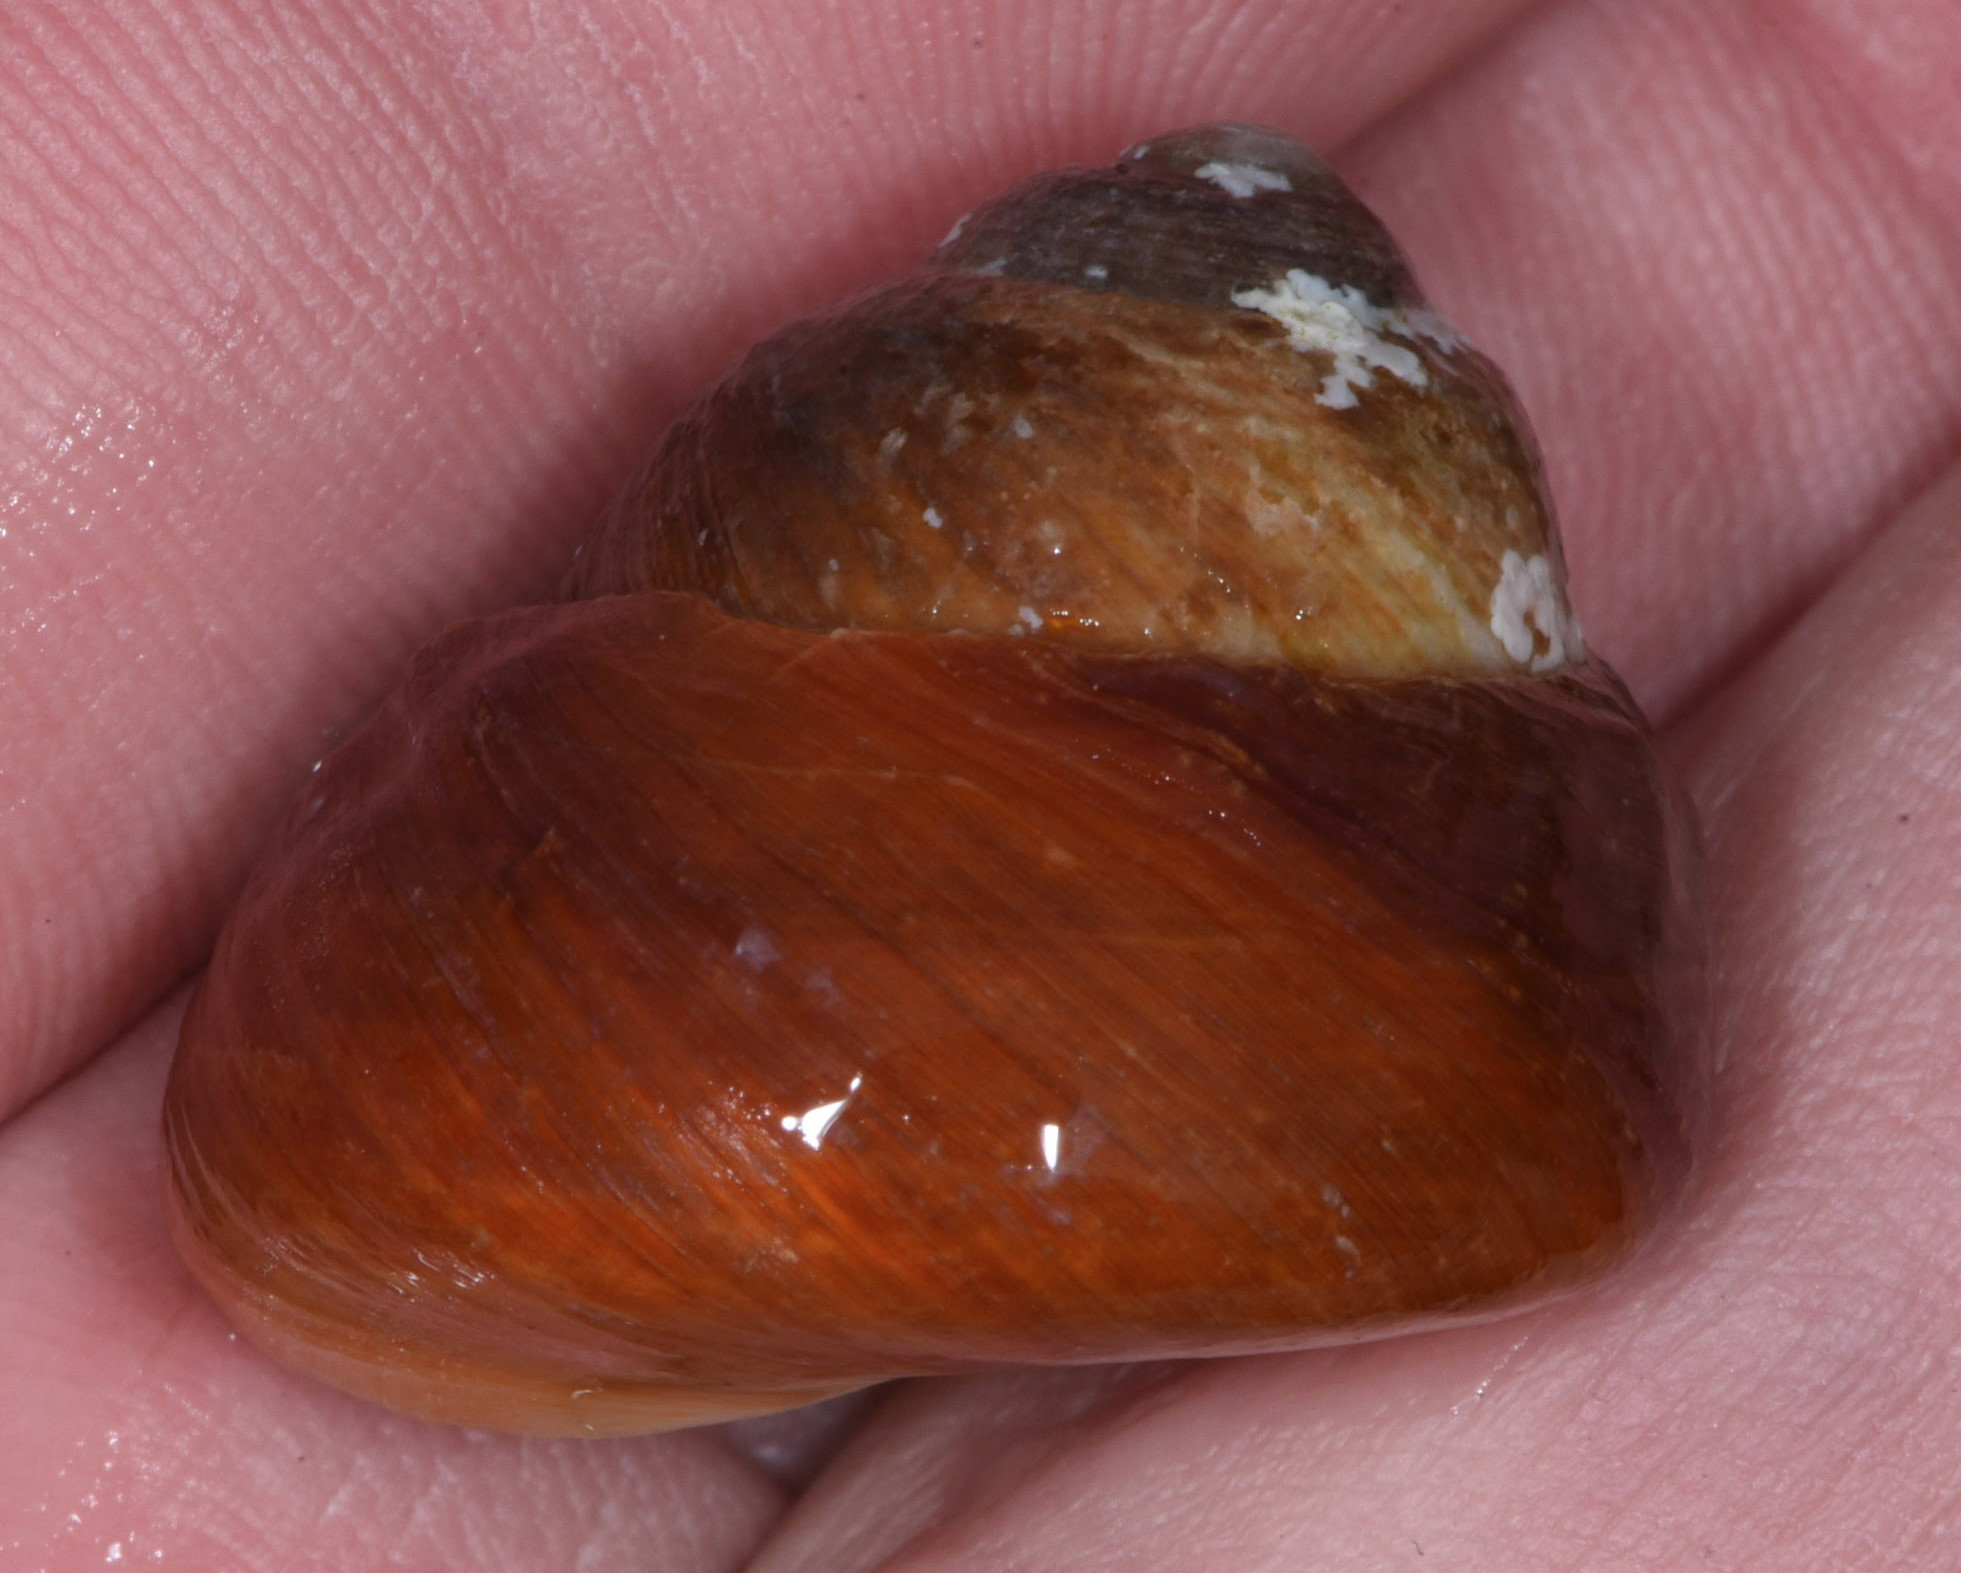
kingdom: Animalia
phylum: Mollusca
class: Gastropoda
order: Trochida
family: Tegulidae
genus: Tegula
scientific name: Tegula brunnea
